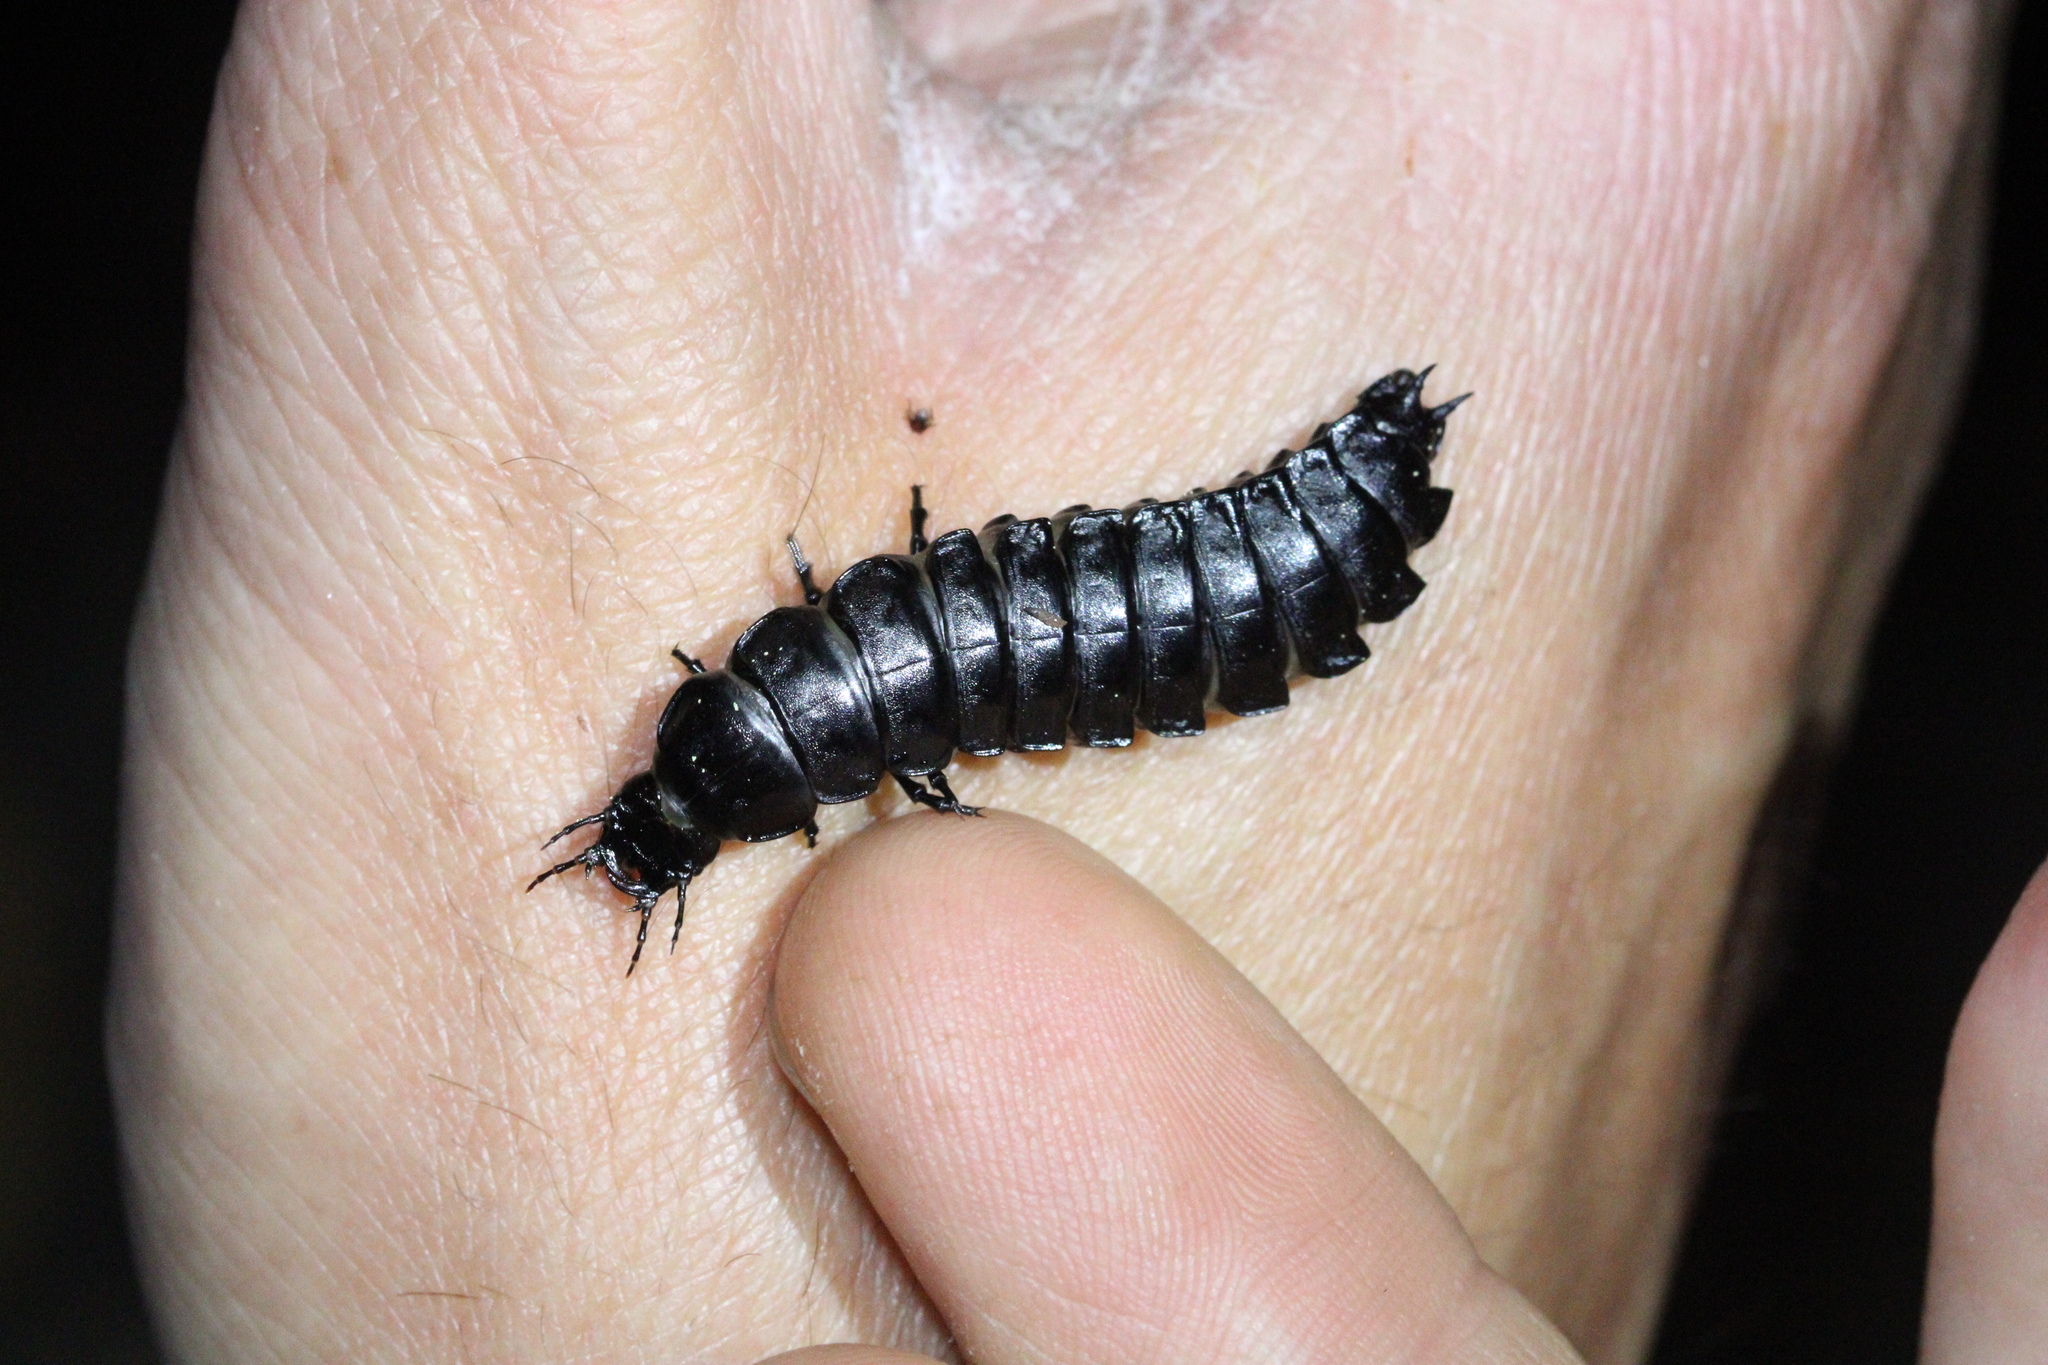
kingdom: Animalia
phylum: Arthropoda
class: Insecta
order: Coleoptera
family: Carabidae
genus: Carabus
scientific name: Carabus
